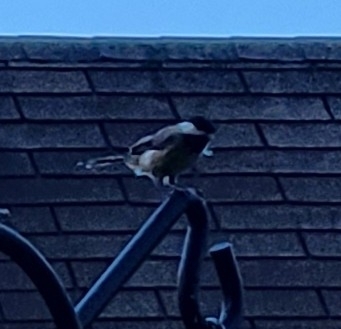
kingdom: Animalia
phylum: Chordata
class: Aves
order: Passeriformes
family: Paridae
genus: Poecile
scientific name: Poecile carolinensis
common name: Carolina chickadee
